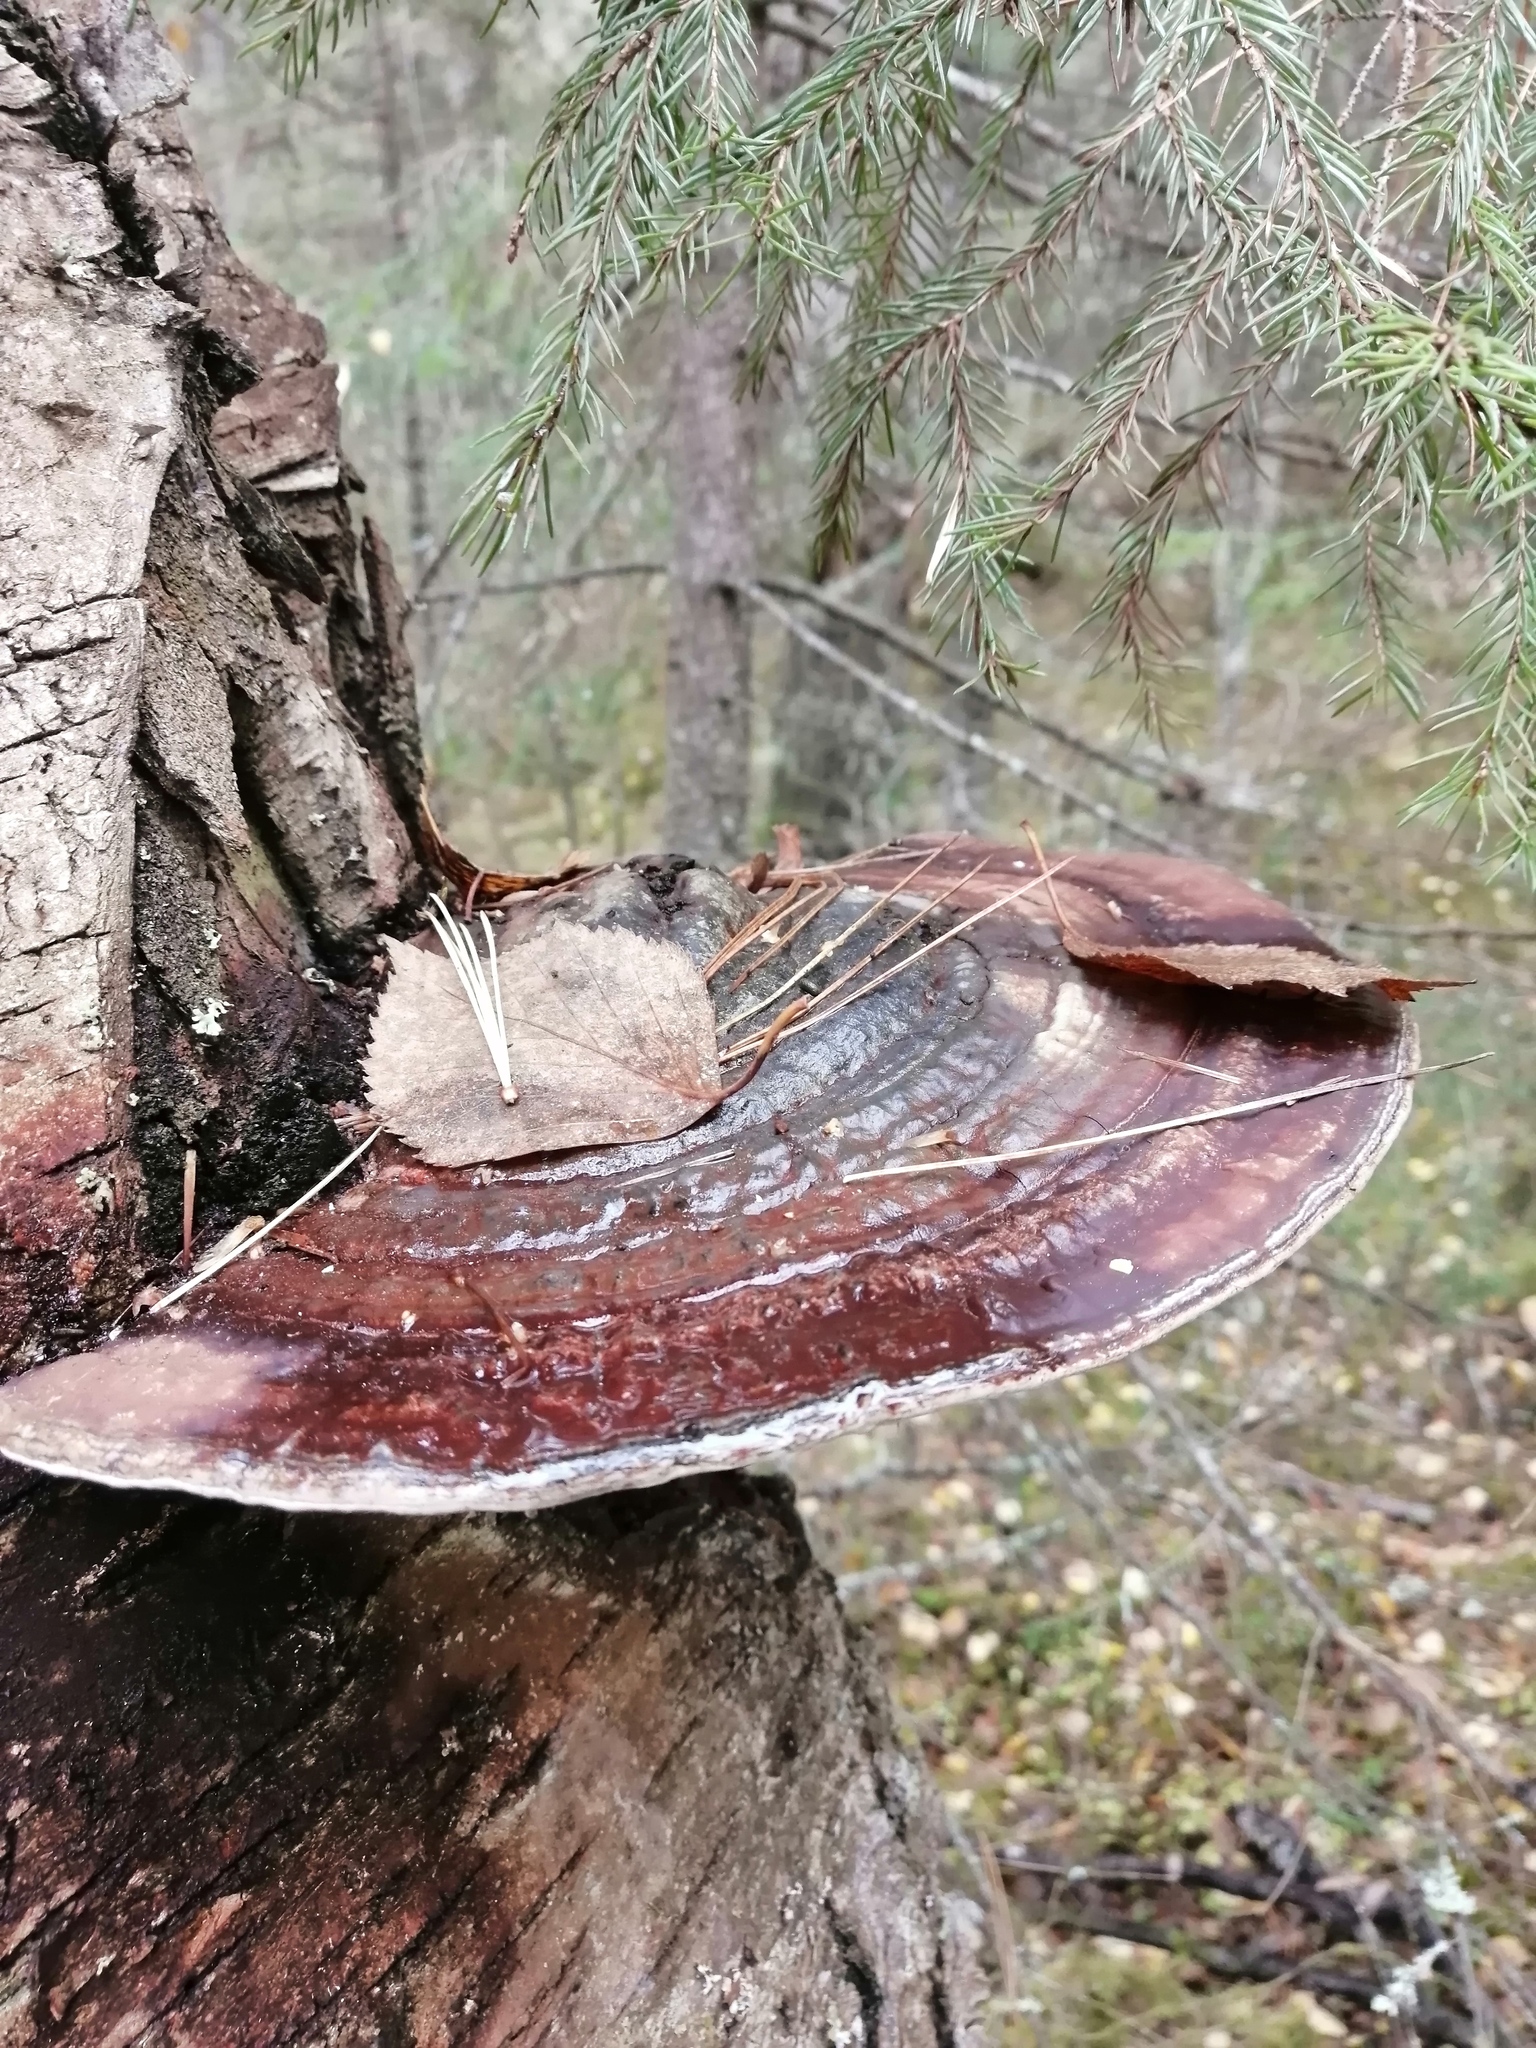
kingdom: Fungi
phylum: Basidiomycota
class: Agaricomycetes
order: Polyporales
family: Polyporaceae
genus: Ganoderma
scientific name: Ganoderma applanatum
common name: Artist's bracket
